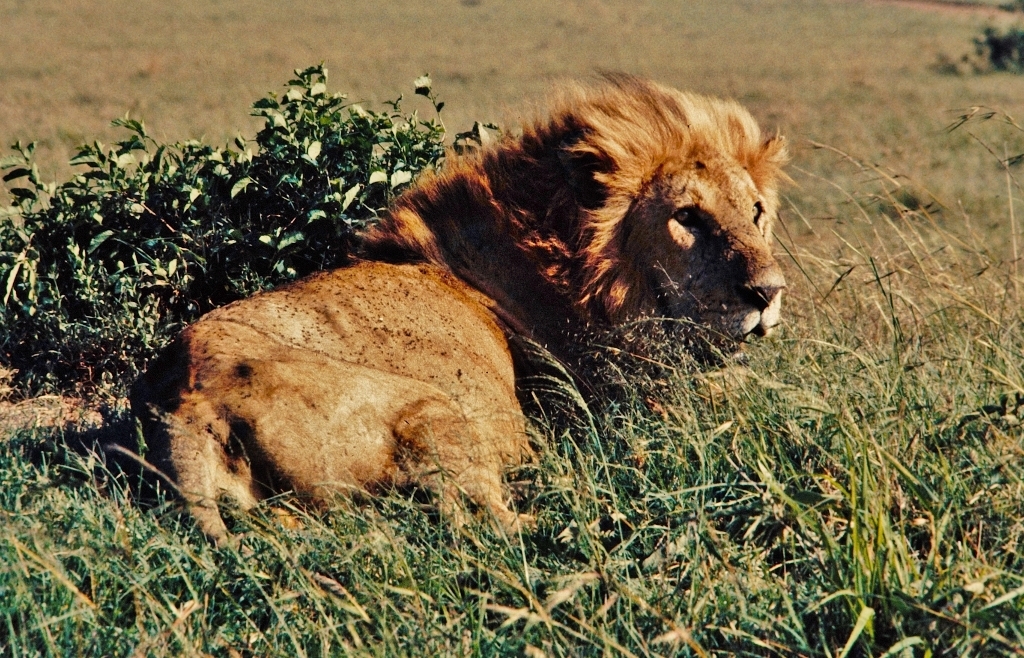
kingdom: Animalia
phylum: Chordata
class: Mammalia
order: Carnivora
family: Felidae
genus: Panthera
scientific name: Panthera leo
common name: Lion
